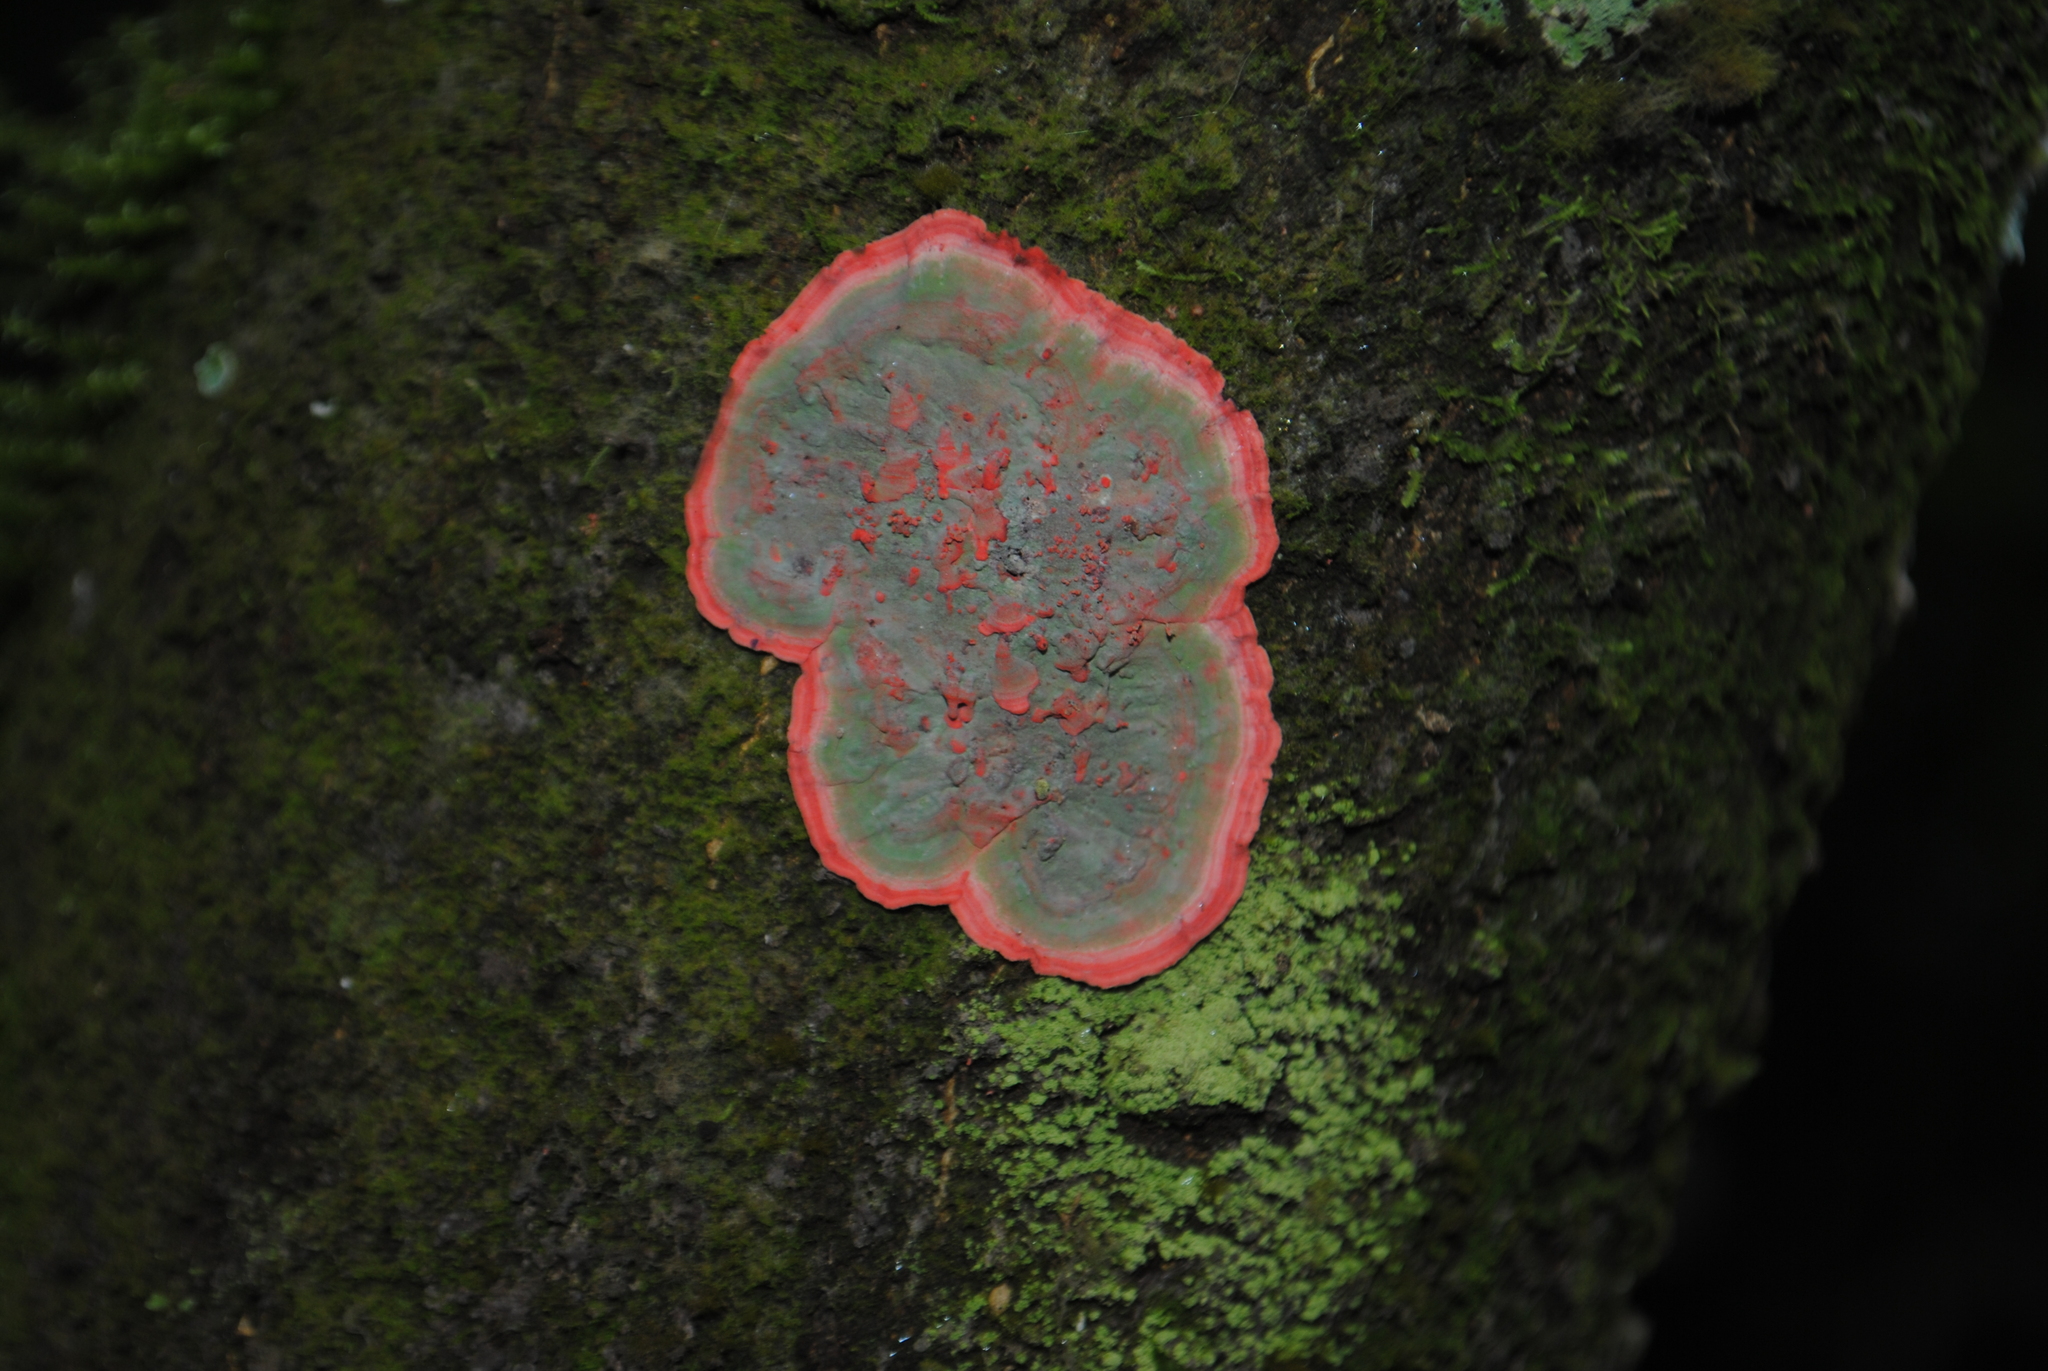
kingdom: Fungi
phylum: Ascomycota
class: Arthoniomycetes
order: Arthoniales
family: Arthoniaceae
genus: Herpothallon
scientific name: Herpothallon rubrocinctum
